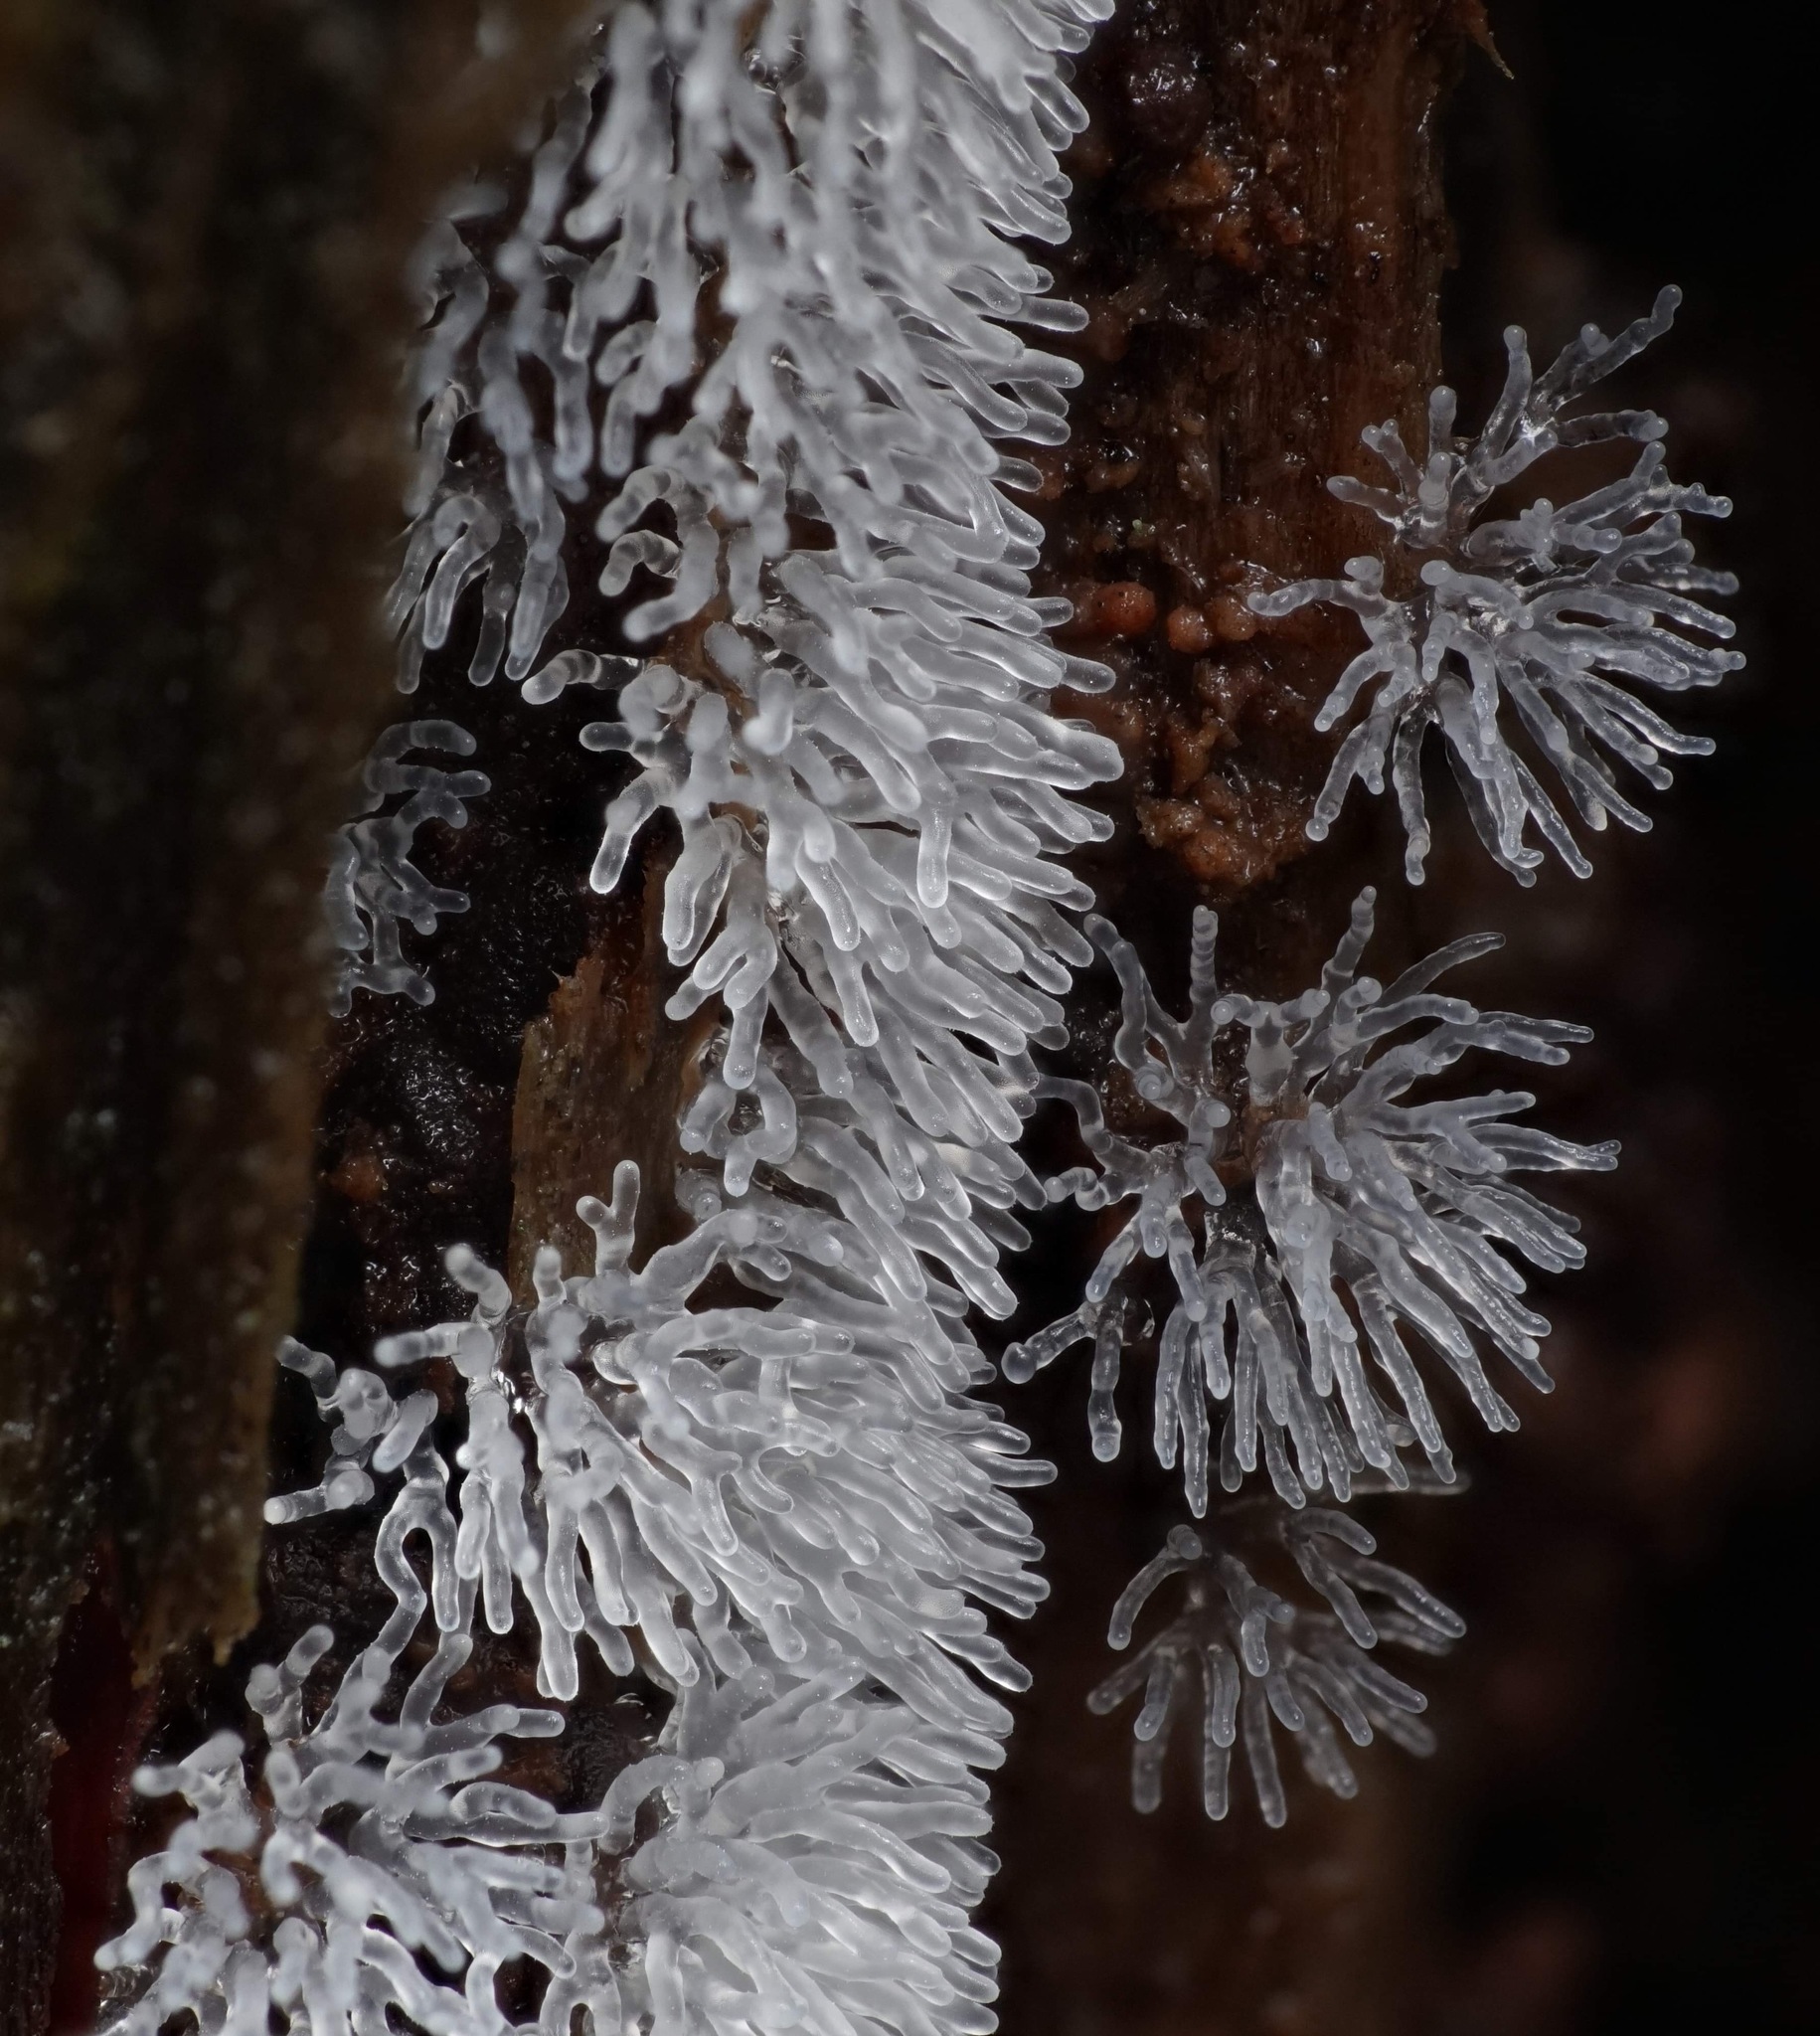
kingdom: Protozoa
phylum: Mycetozoa
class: Protosteliomycetes
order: Ceratiomyxales
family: Ceratiomyxaceae
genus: Ceratiomyxa
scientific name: Ceratiomyxa fruticulosa
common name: Honeycomb coral slime mold
